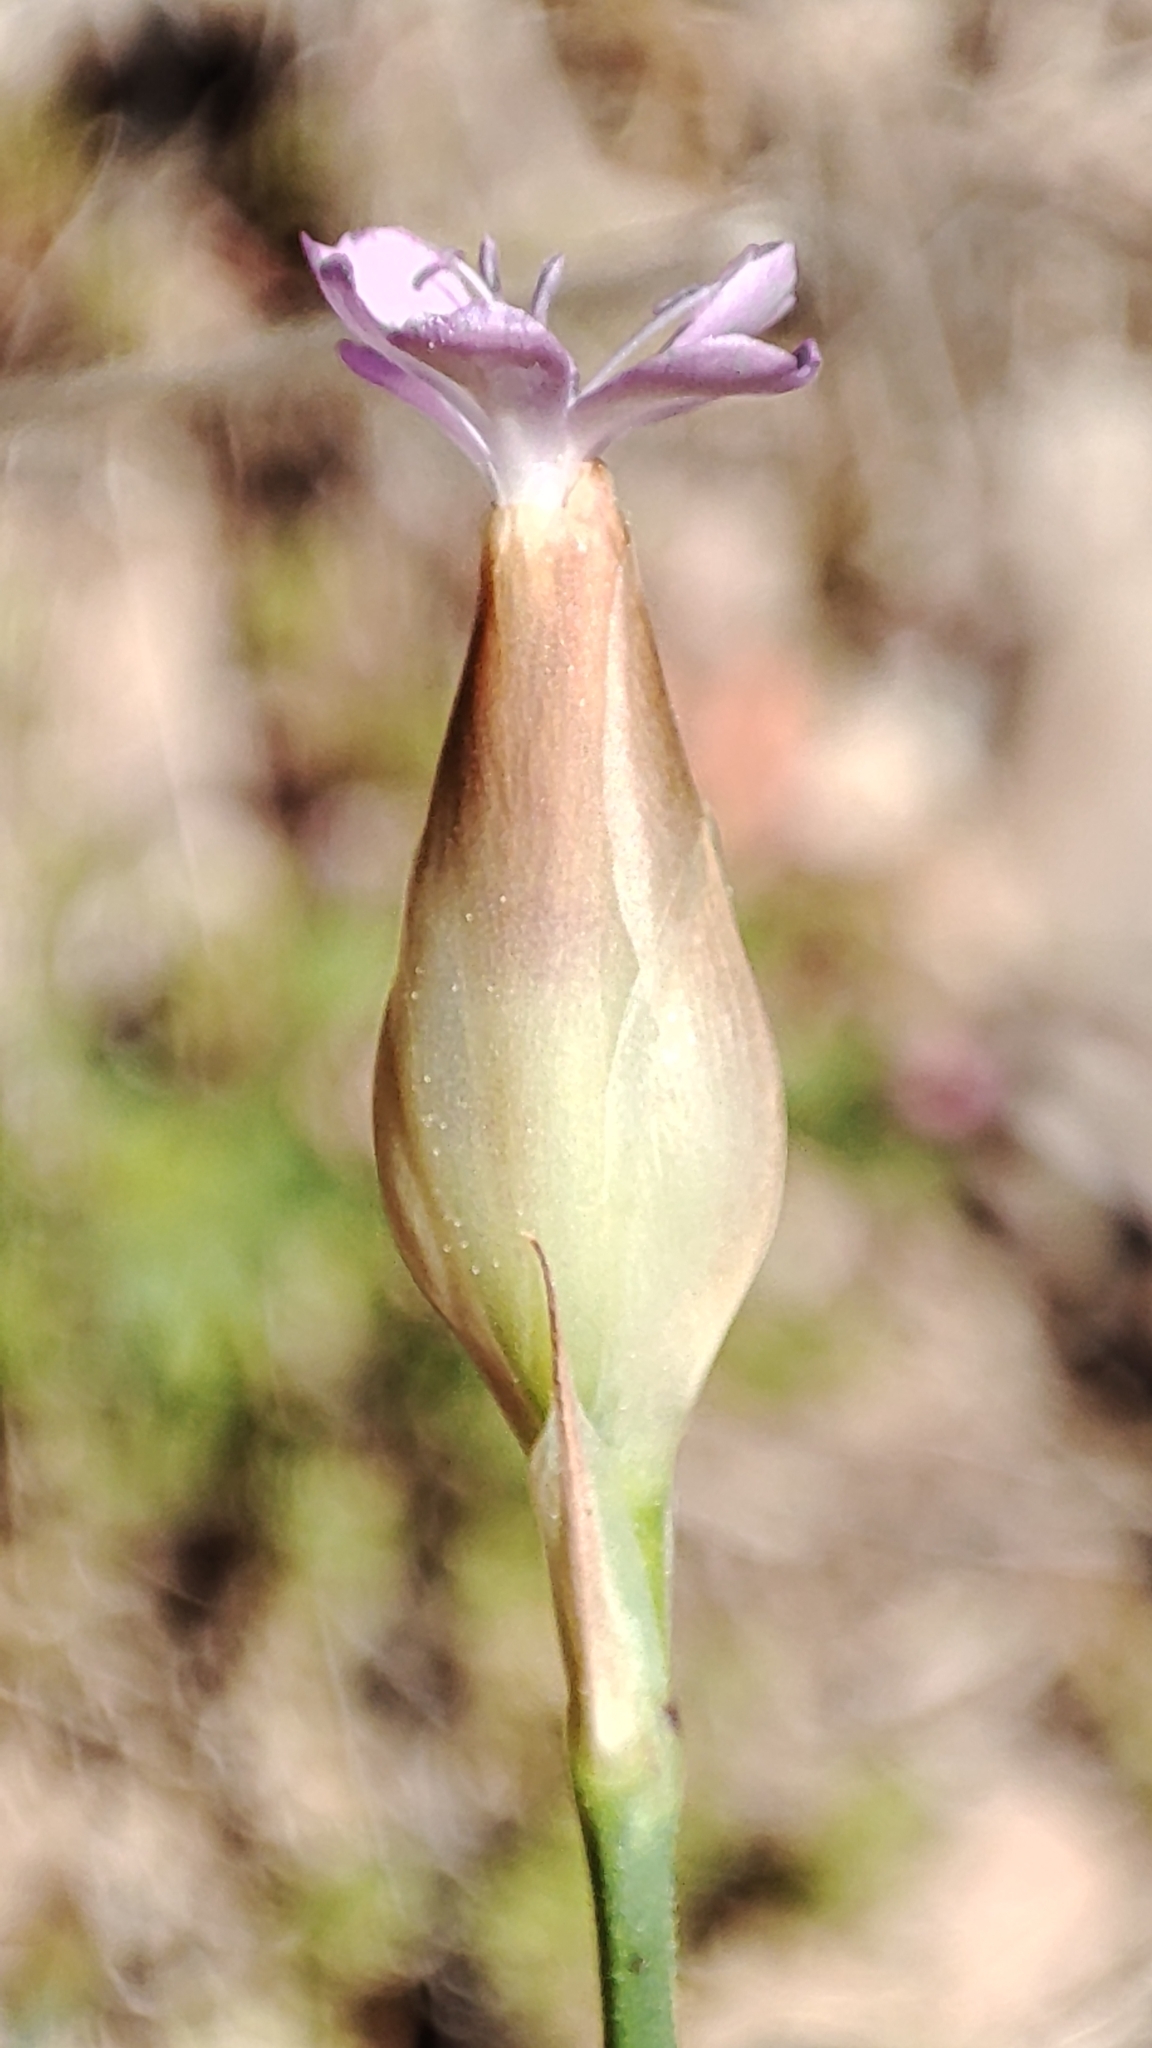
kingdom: Plantae
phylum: Tracheophyta
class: Magnoliopsida
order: Caryophyllales
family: Caryophyllaceae
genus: Petrorhagia
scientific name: Petrorhagia prolifera
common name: Proliferous pink
